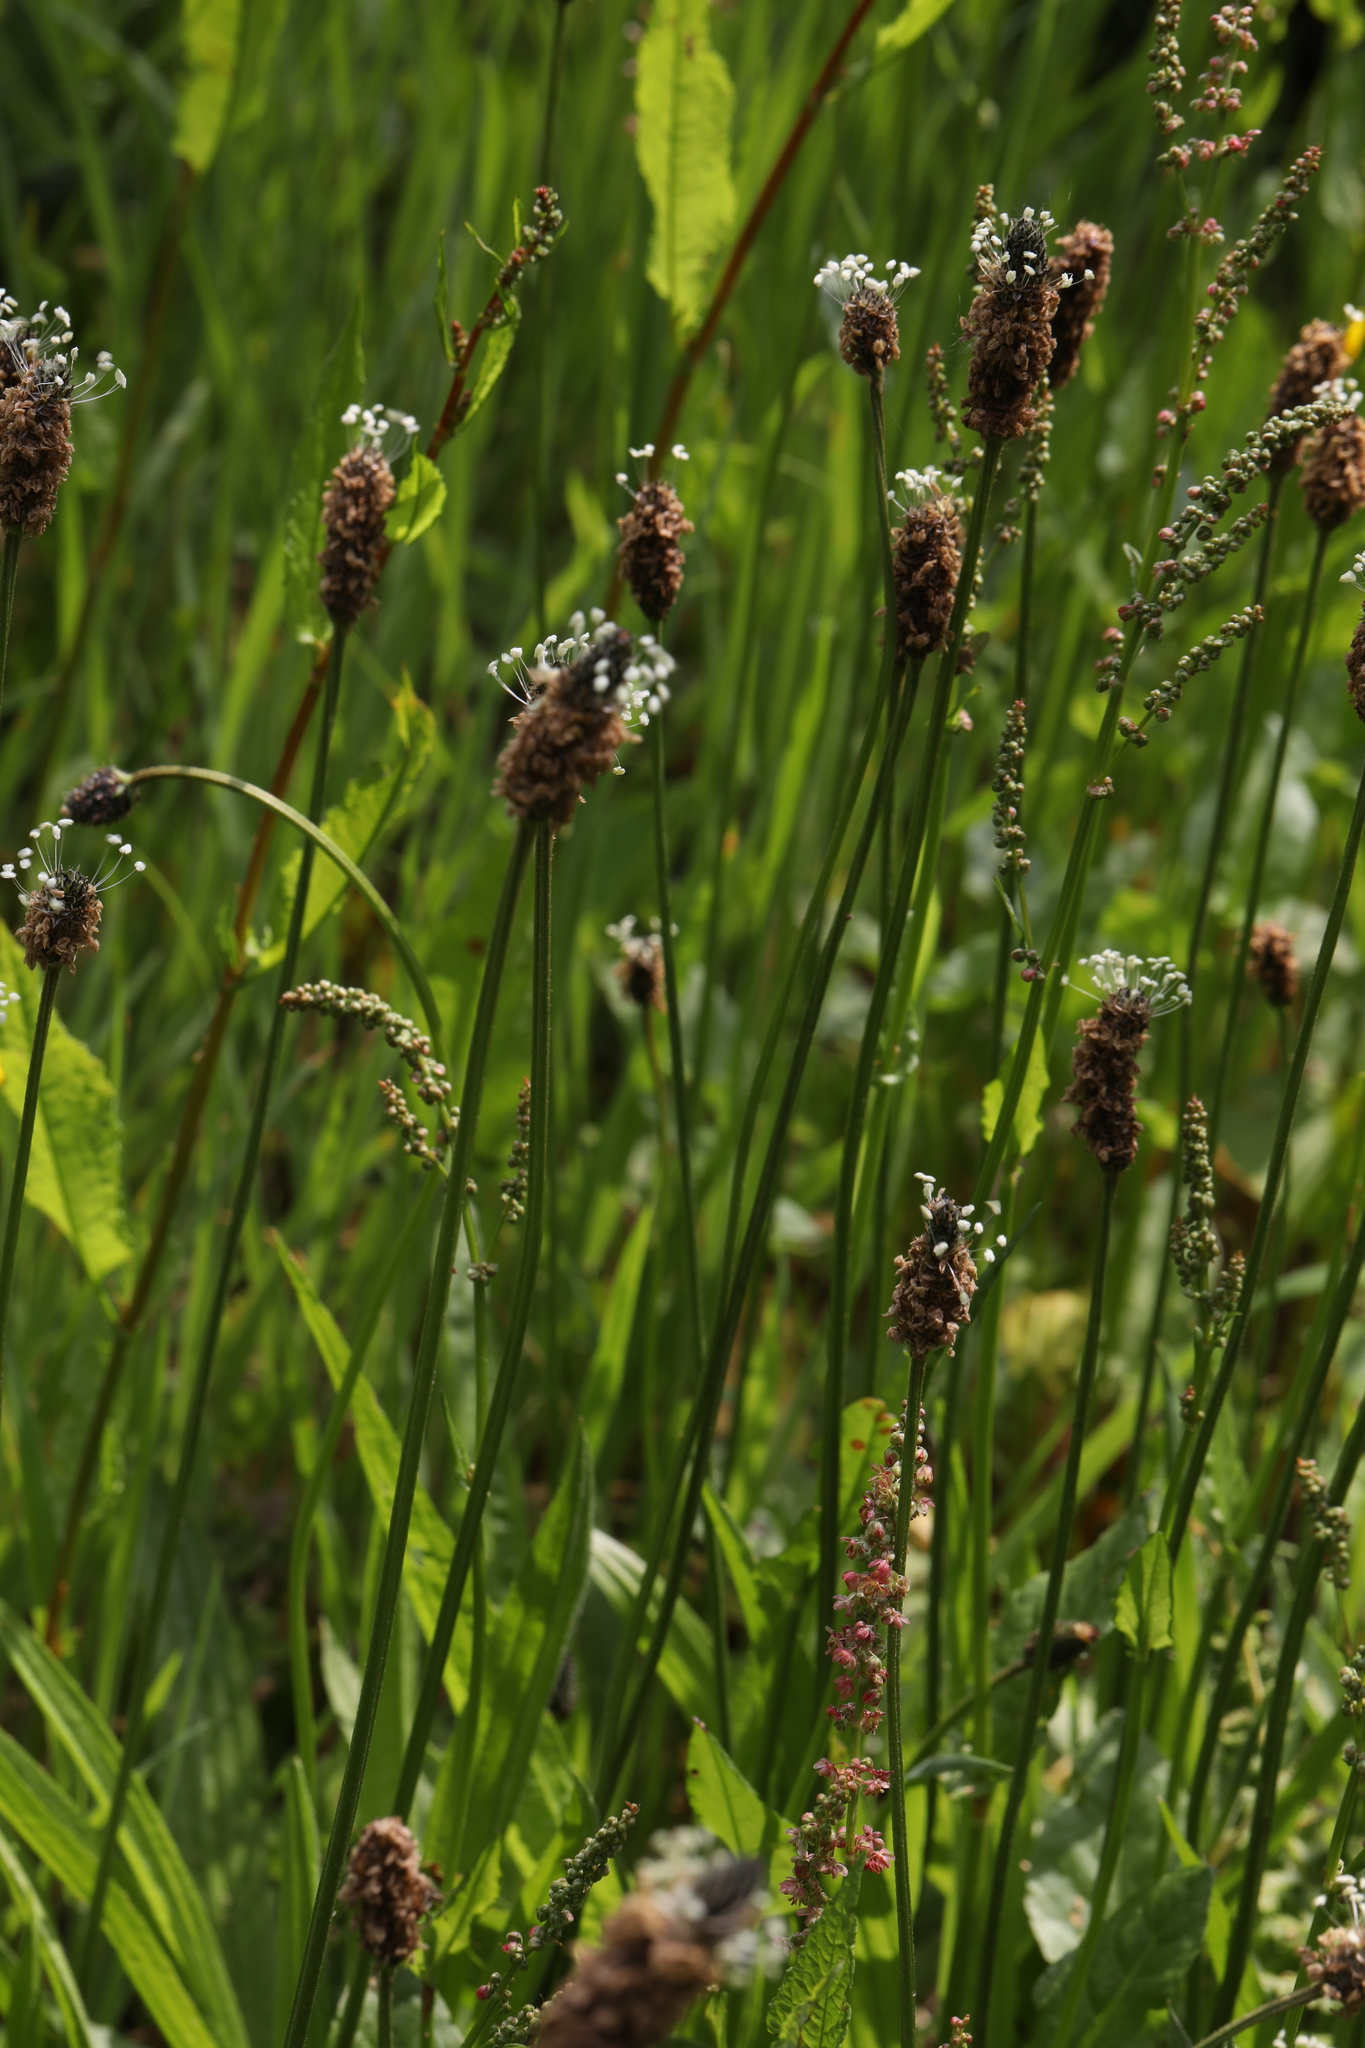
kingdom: Plantae
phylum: Tracheophyta
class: Magnoliopsida
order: Lamiales
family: Plantaginaceae
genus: Plantago
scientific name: Plantago lanceolata
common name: Ribwort plantain
